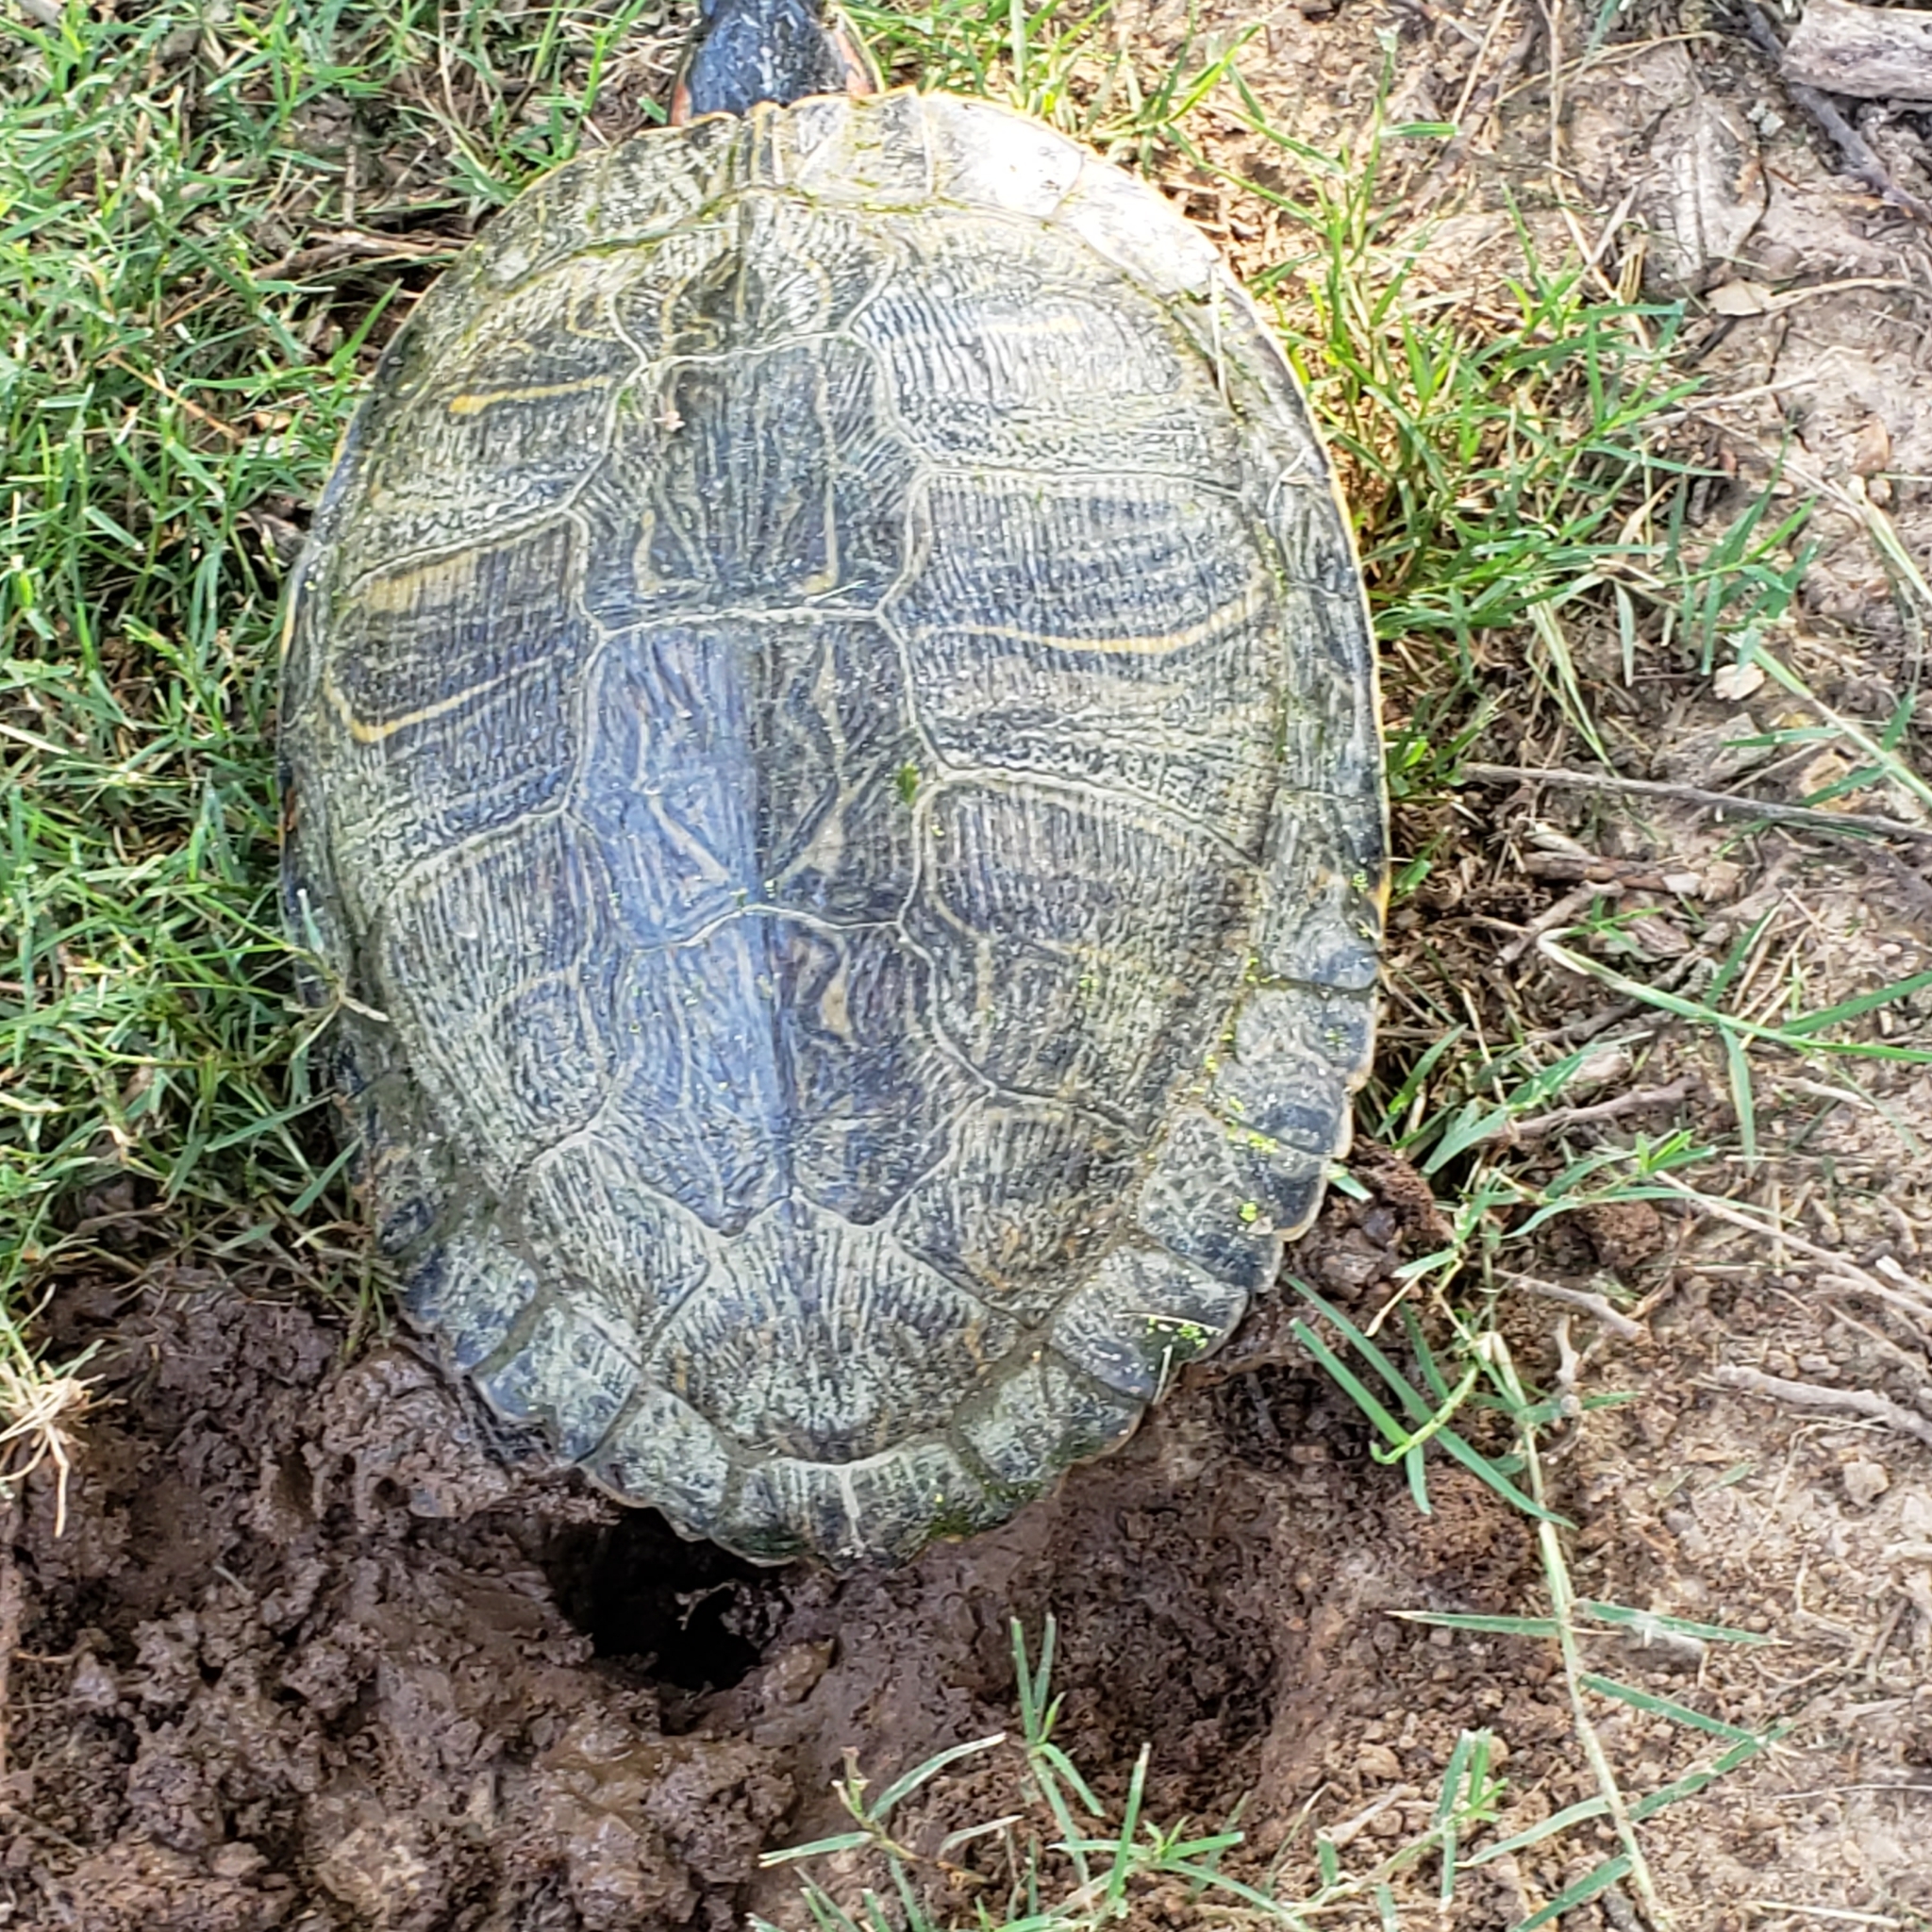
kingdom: Animalia
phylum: Chordata
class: Testudines
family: Emydidae
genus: Trachemys
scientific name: Trachemys scripta
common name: Slider
